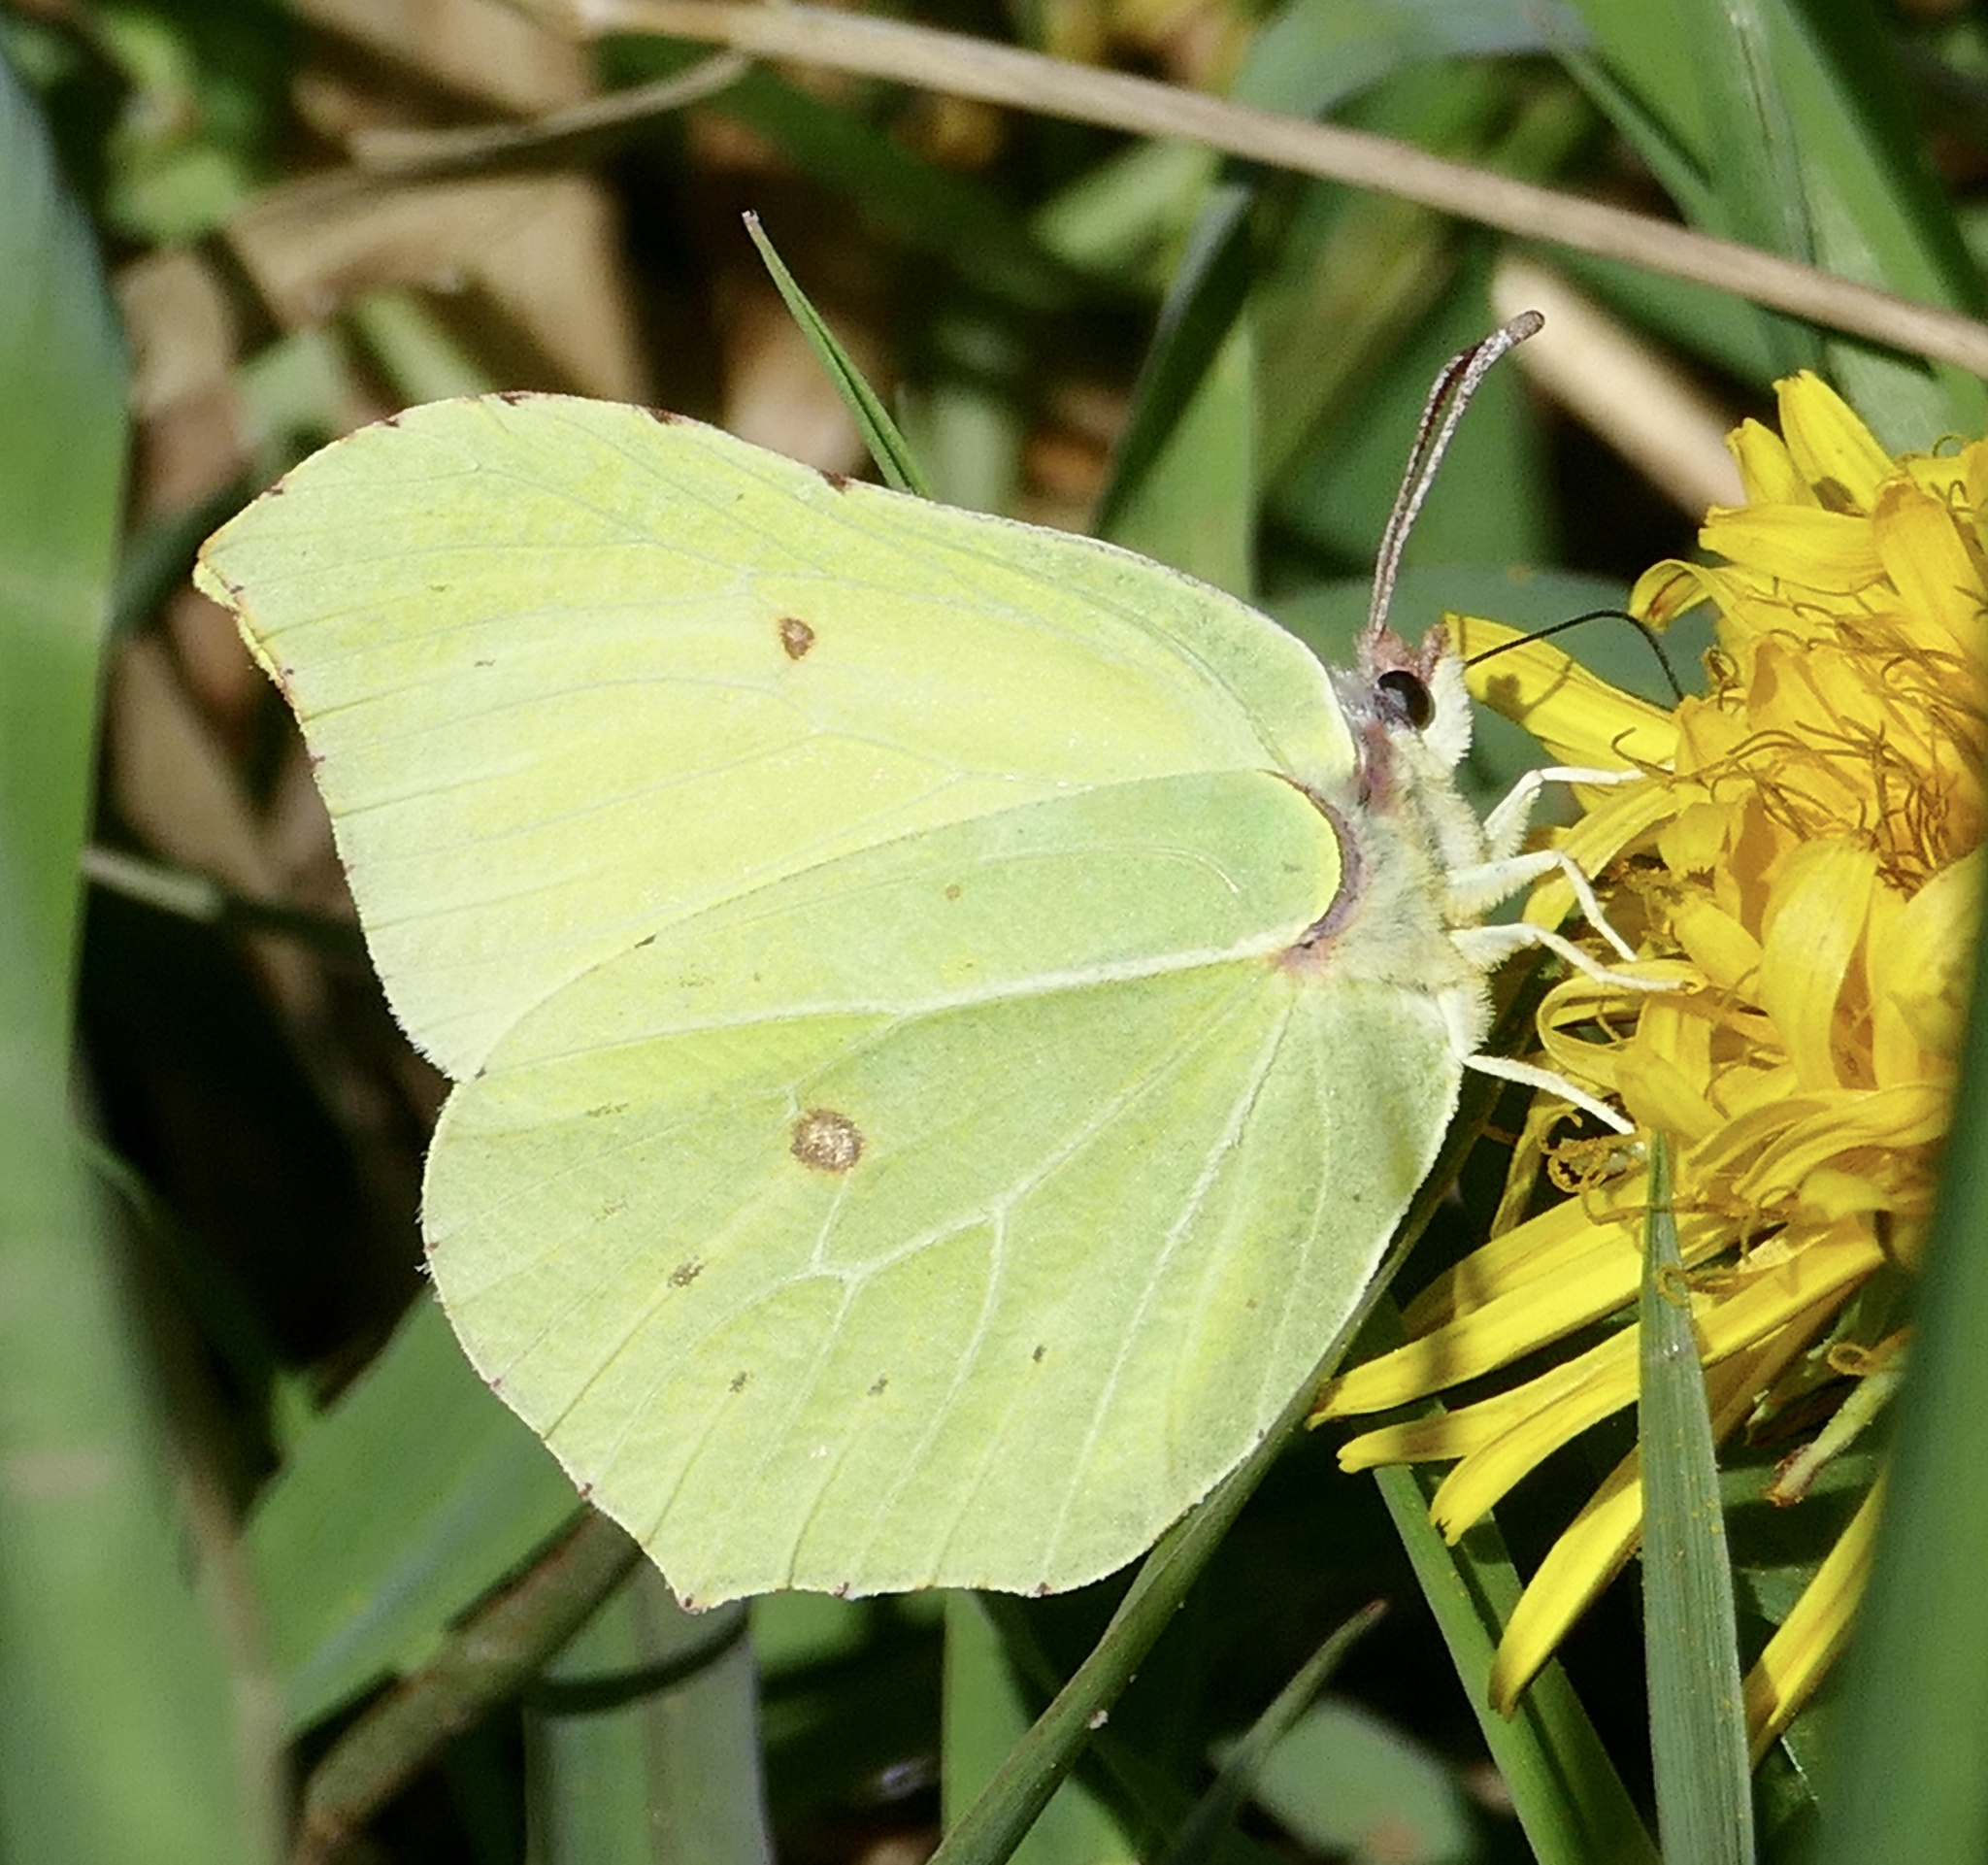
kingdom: Animalia
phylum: Arthropoda
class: Insecta
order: Lepidoptera
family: Pieridae
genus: Gonepteryx
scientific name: Gonepteryx rhamni
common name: Brimstone
